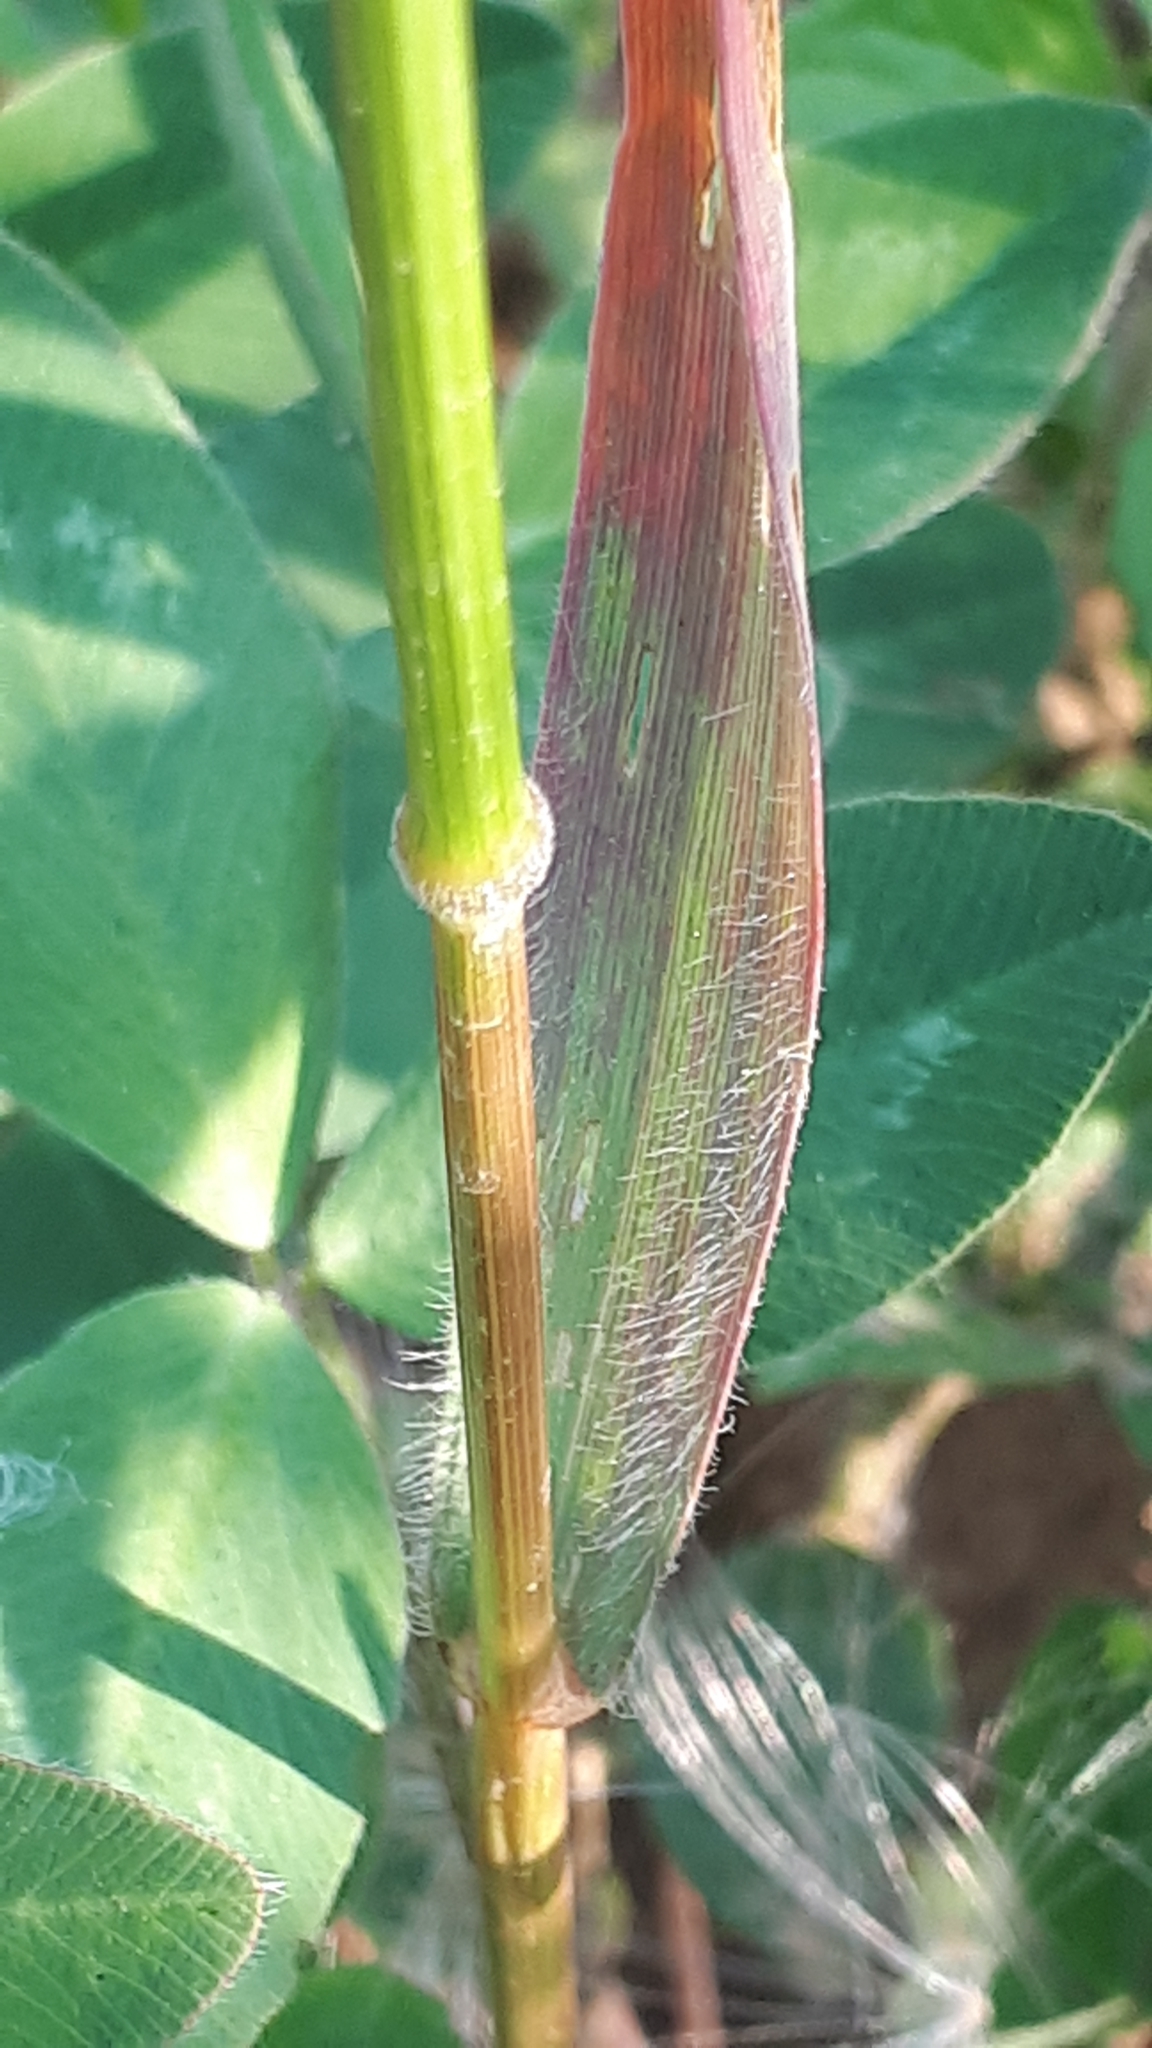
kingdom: Plantae
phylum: Tracheophyta
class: Liliopsida
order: Poales
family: Poaceae
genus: Bromus
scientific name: Bromus secalinus
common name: Rye brome
